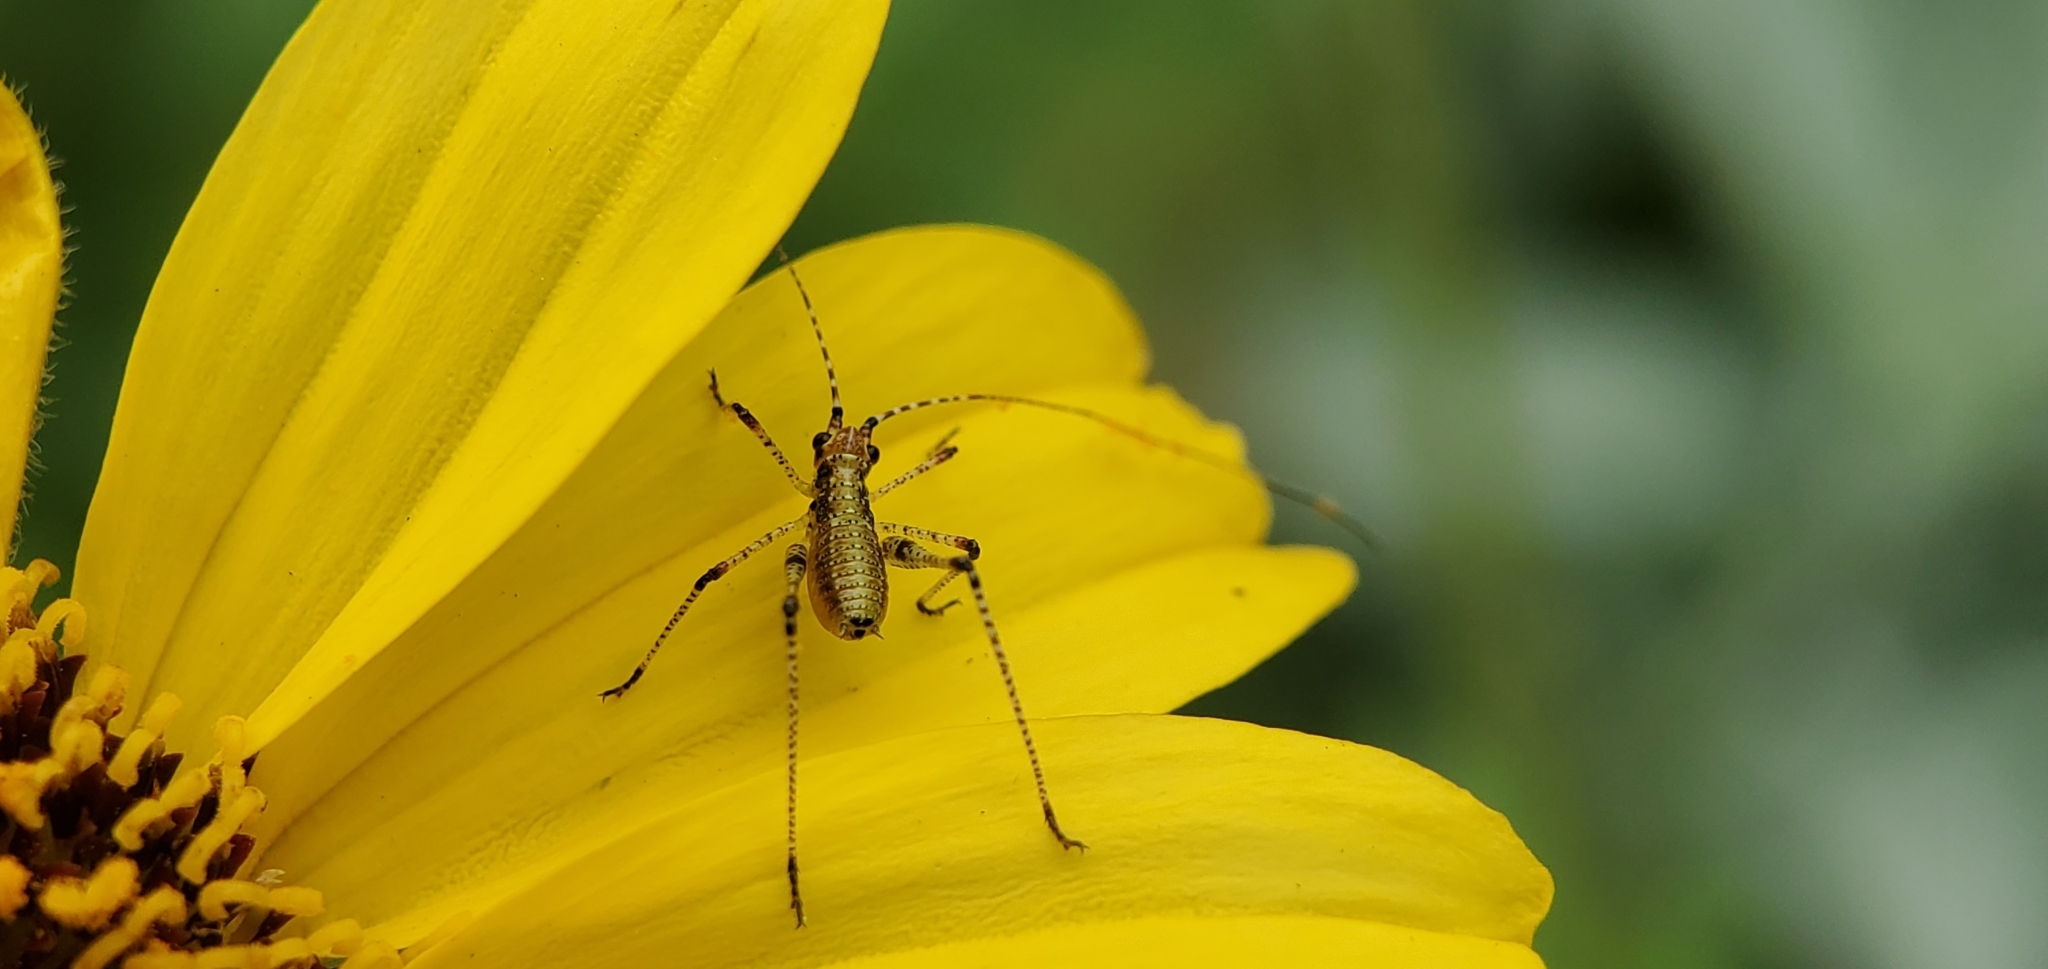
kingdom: Animalia
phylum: Arthropoda
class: Insecta
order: Orthoptera
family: Tettigoniidae
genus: Phaneroptera
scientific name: Phaneroptera nana
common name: Southern sickle bush-cricket
